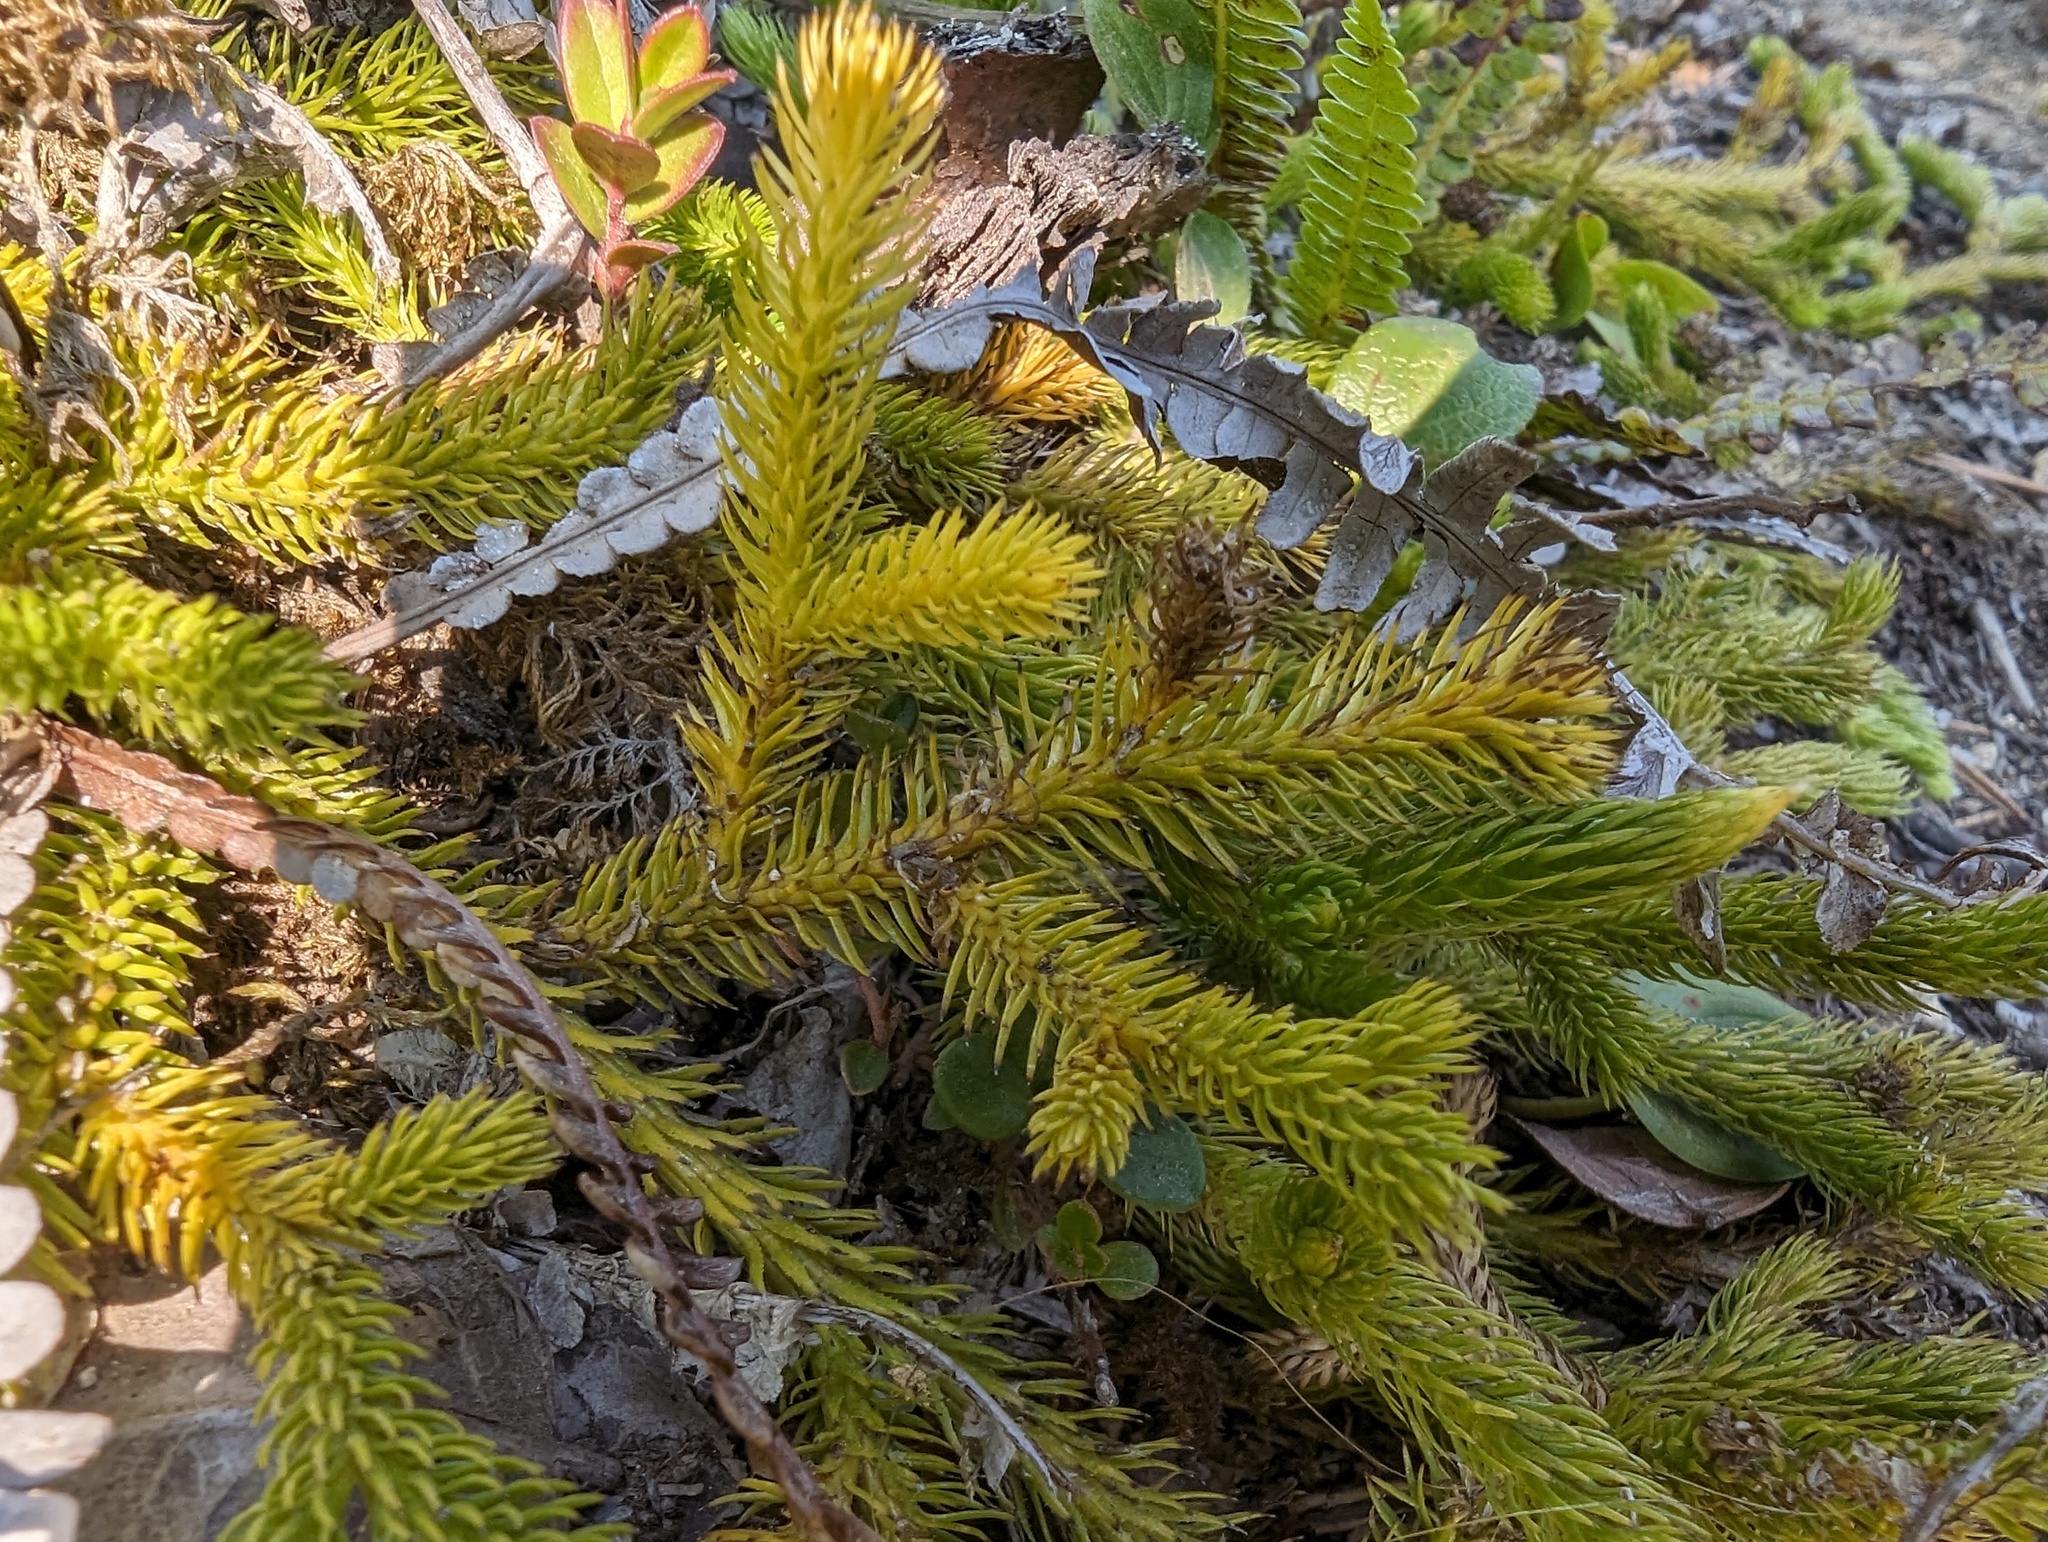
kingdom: Plantae
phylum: Tracheophyta
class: Lycopodiopsida
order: Lycopodiales
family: Lycopodiaceae
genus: Lycopodium
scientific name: Lycopodium clavatum
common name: Stag's-horn clubmoss
